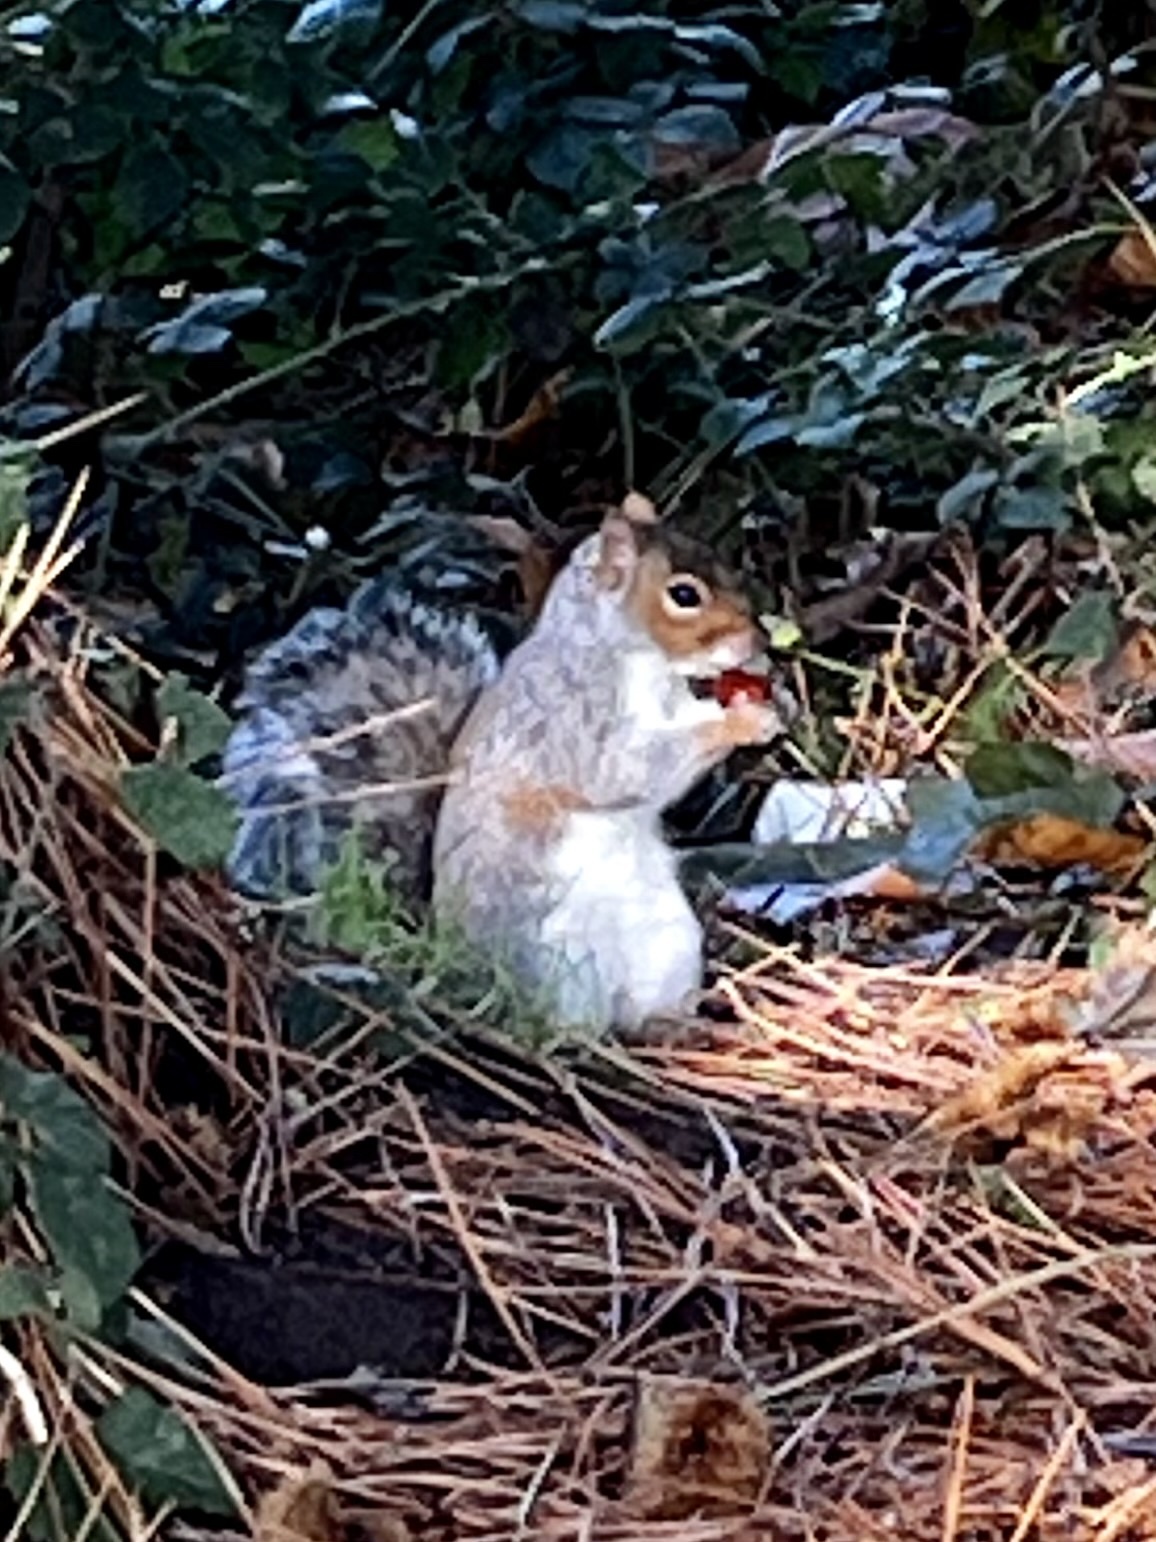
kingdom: Animalia
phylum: Chordata
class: Mammalia
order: Rodentia
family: Sciuridae
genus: Sciurus
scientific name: Sciurus carolinensis
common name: Eastern gray squirrel
